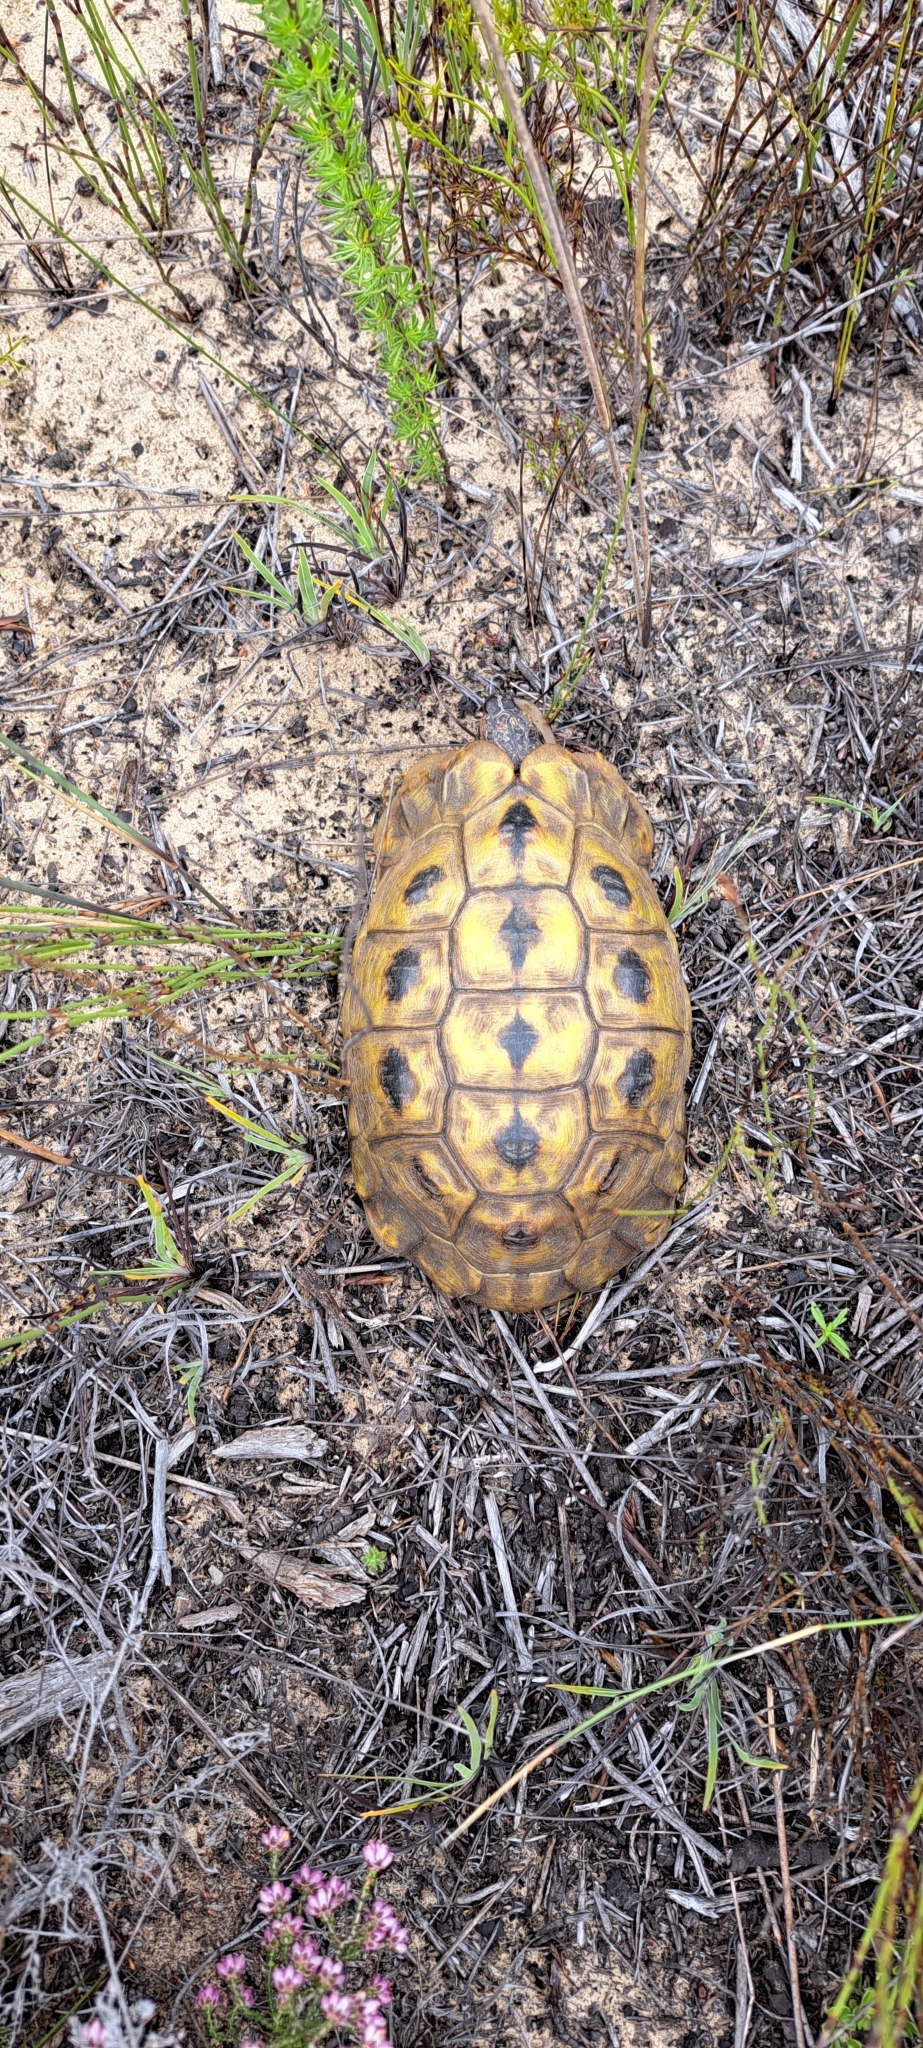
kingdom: Animalia
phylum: Chordata
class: Testudines
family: Testudinidae
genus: Chersina
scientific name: Chersina angulata
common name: South african bowsprit tortoise
